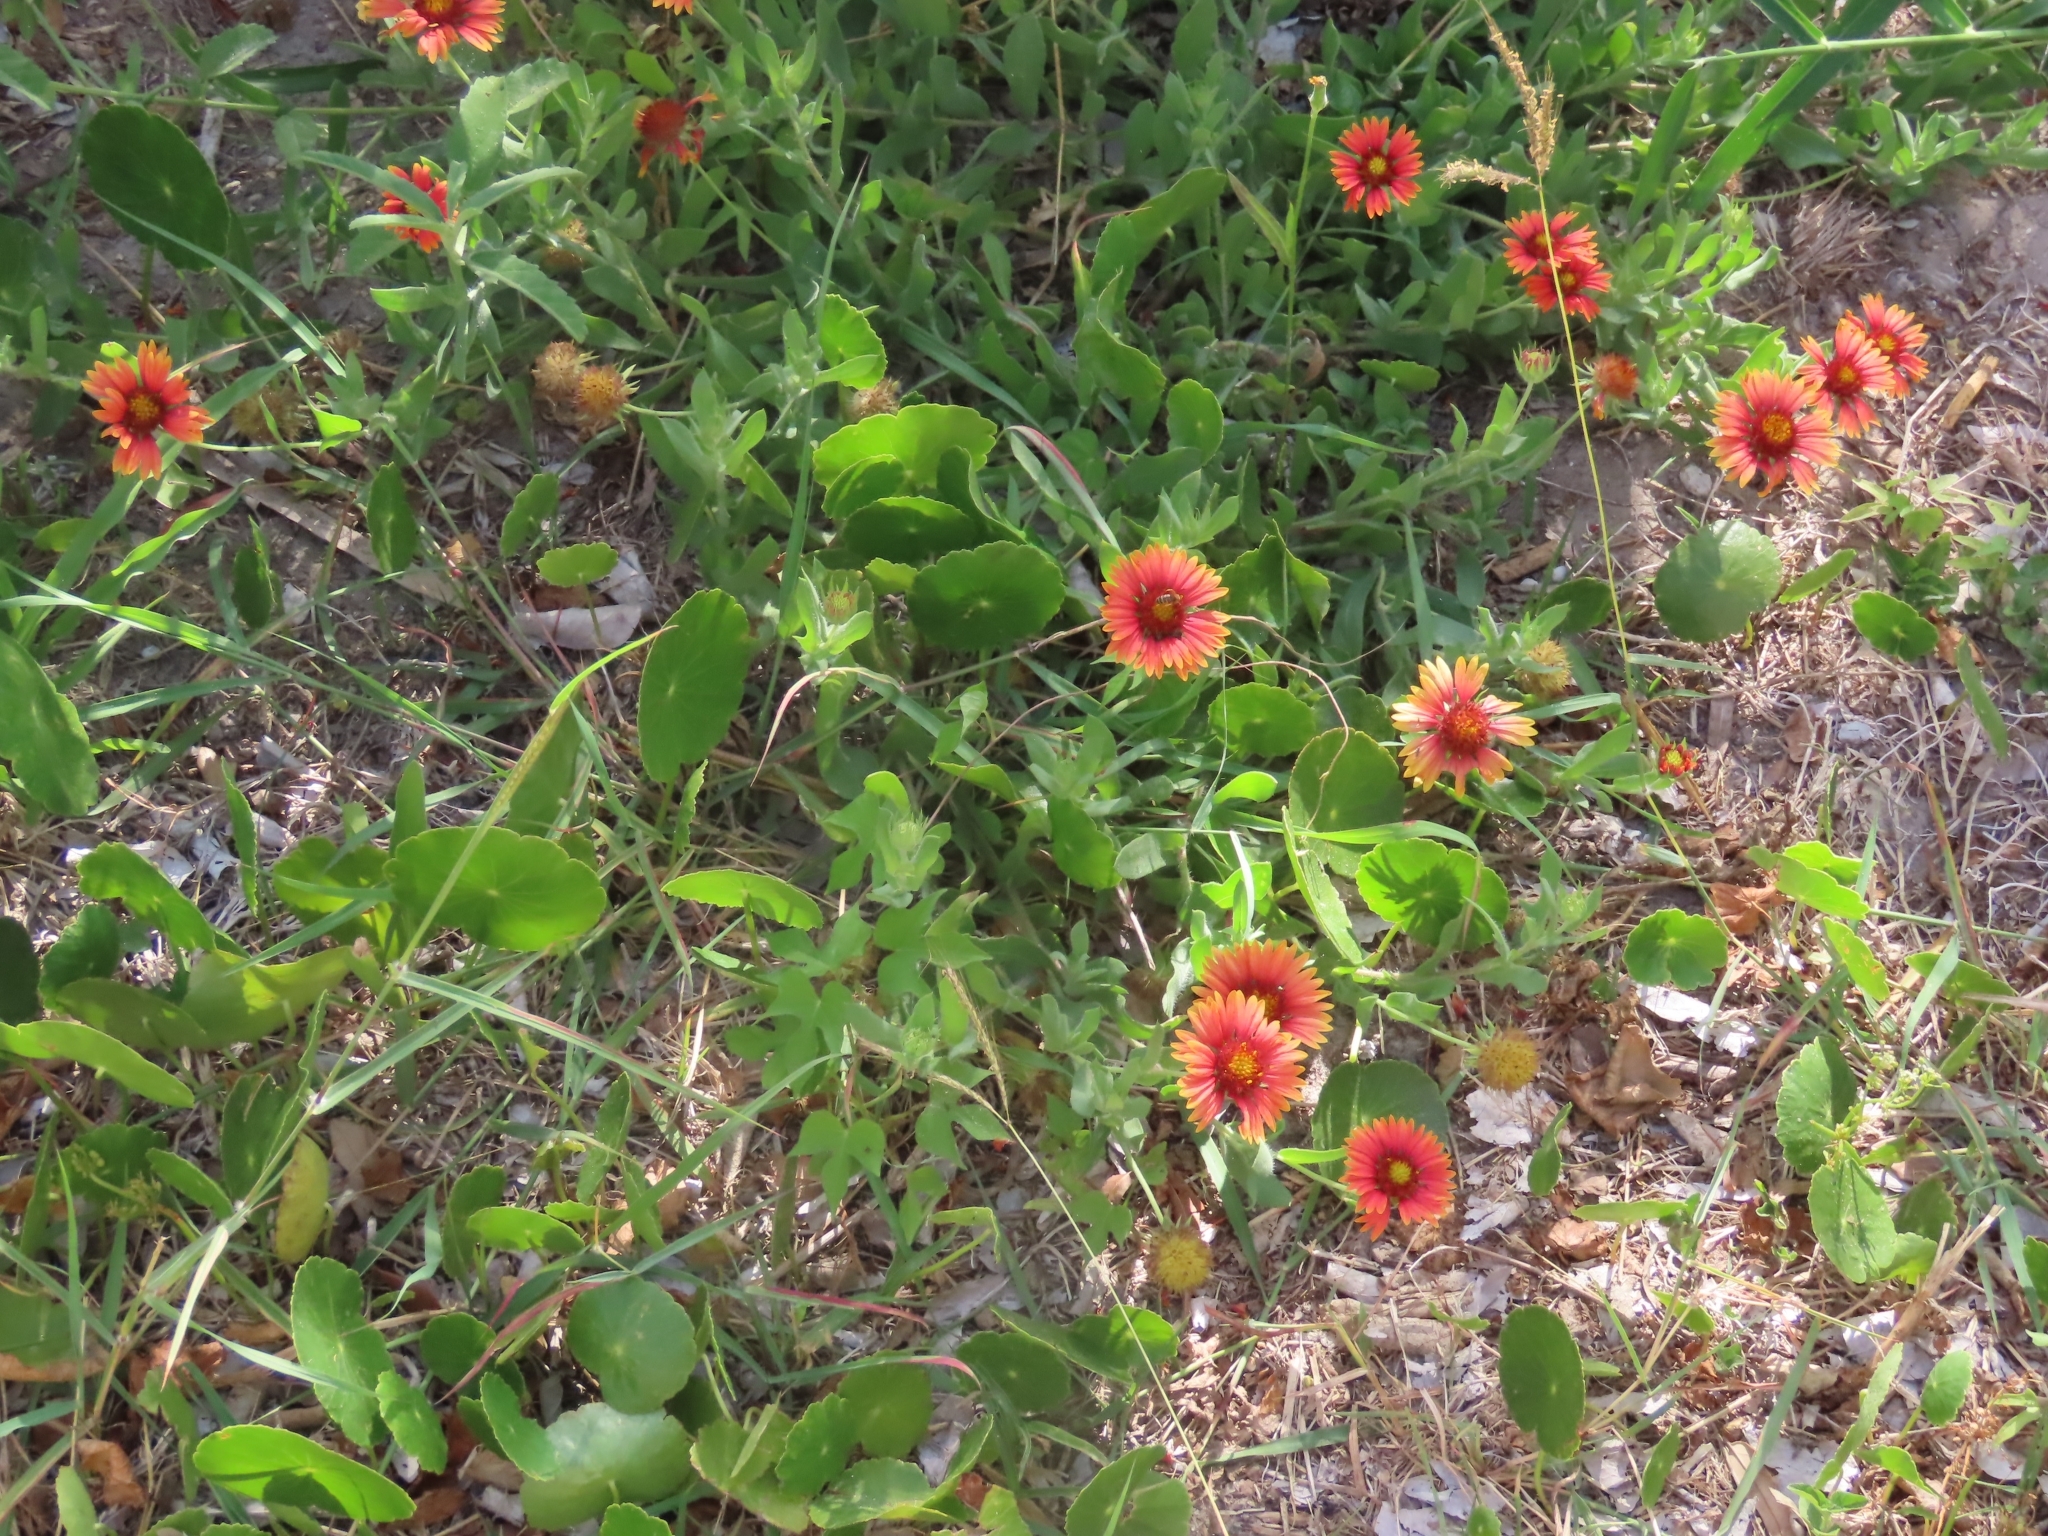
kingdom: Plantae
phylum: Tracheophyta
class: Magnoliopsida
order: Asterales
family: Asteraceae
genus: Gaillardia
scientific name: Gaillardia pulchella
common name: Firewheel
